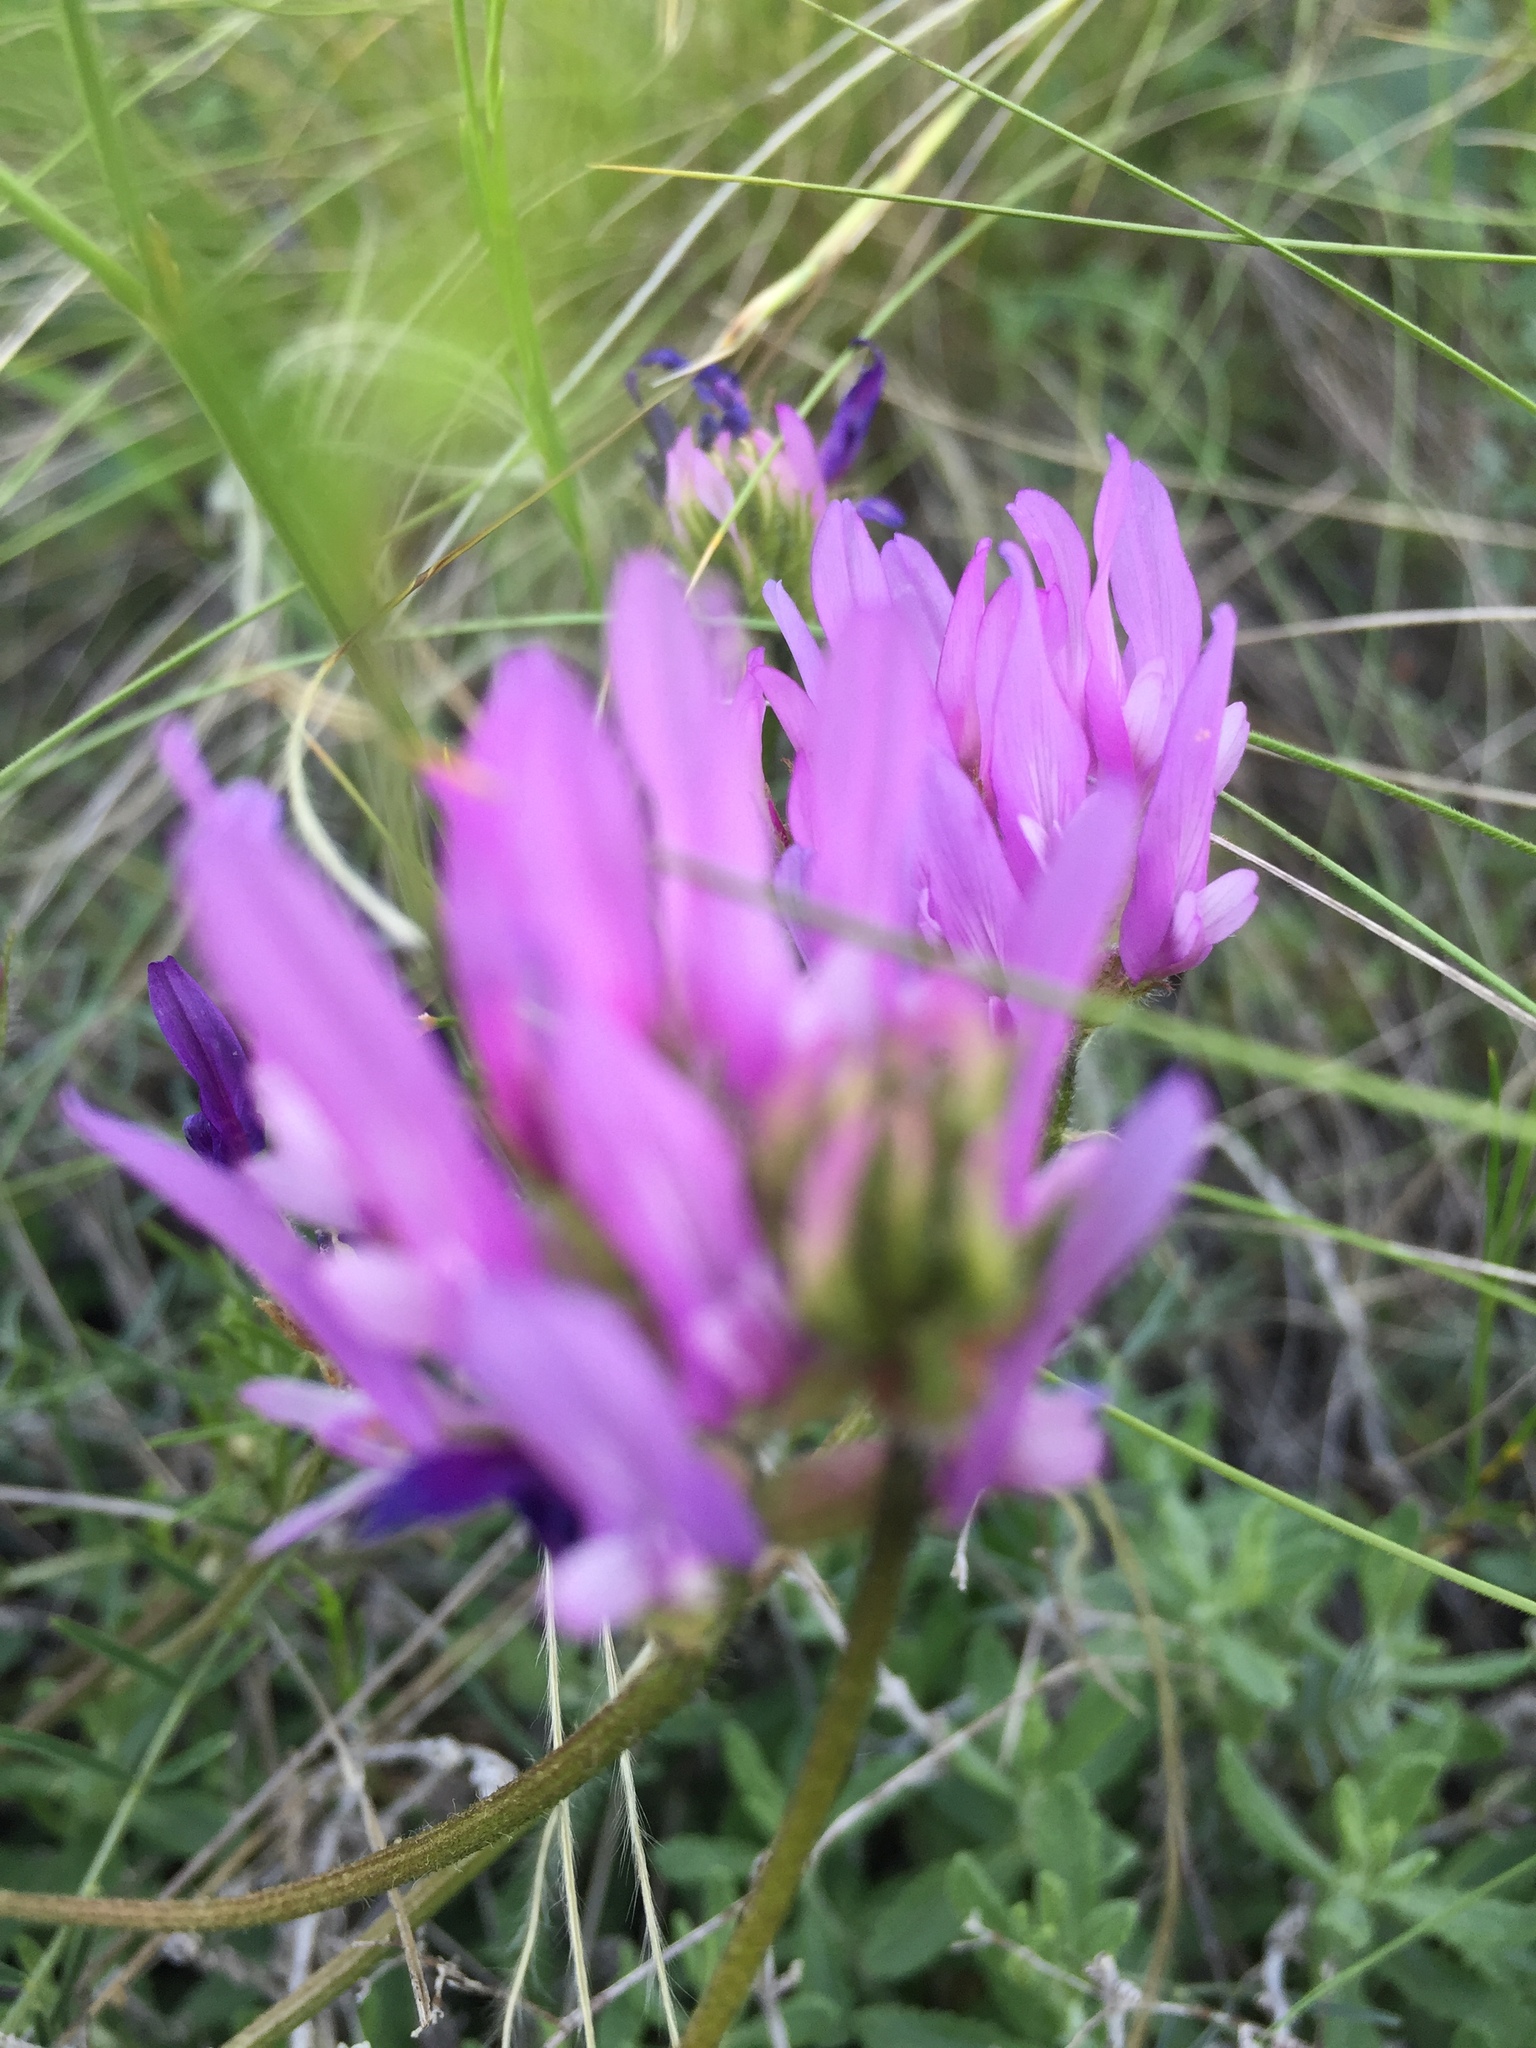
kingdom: Plantae
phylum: Tracheophyta
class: Magnoliopsida
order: Fabales
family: Fabaceae
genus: Astragalus
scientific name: Astragalus onobrychis
